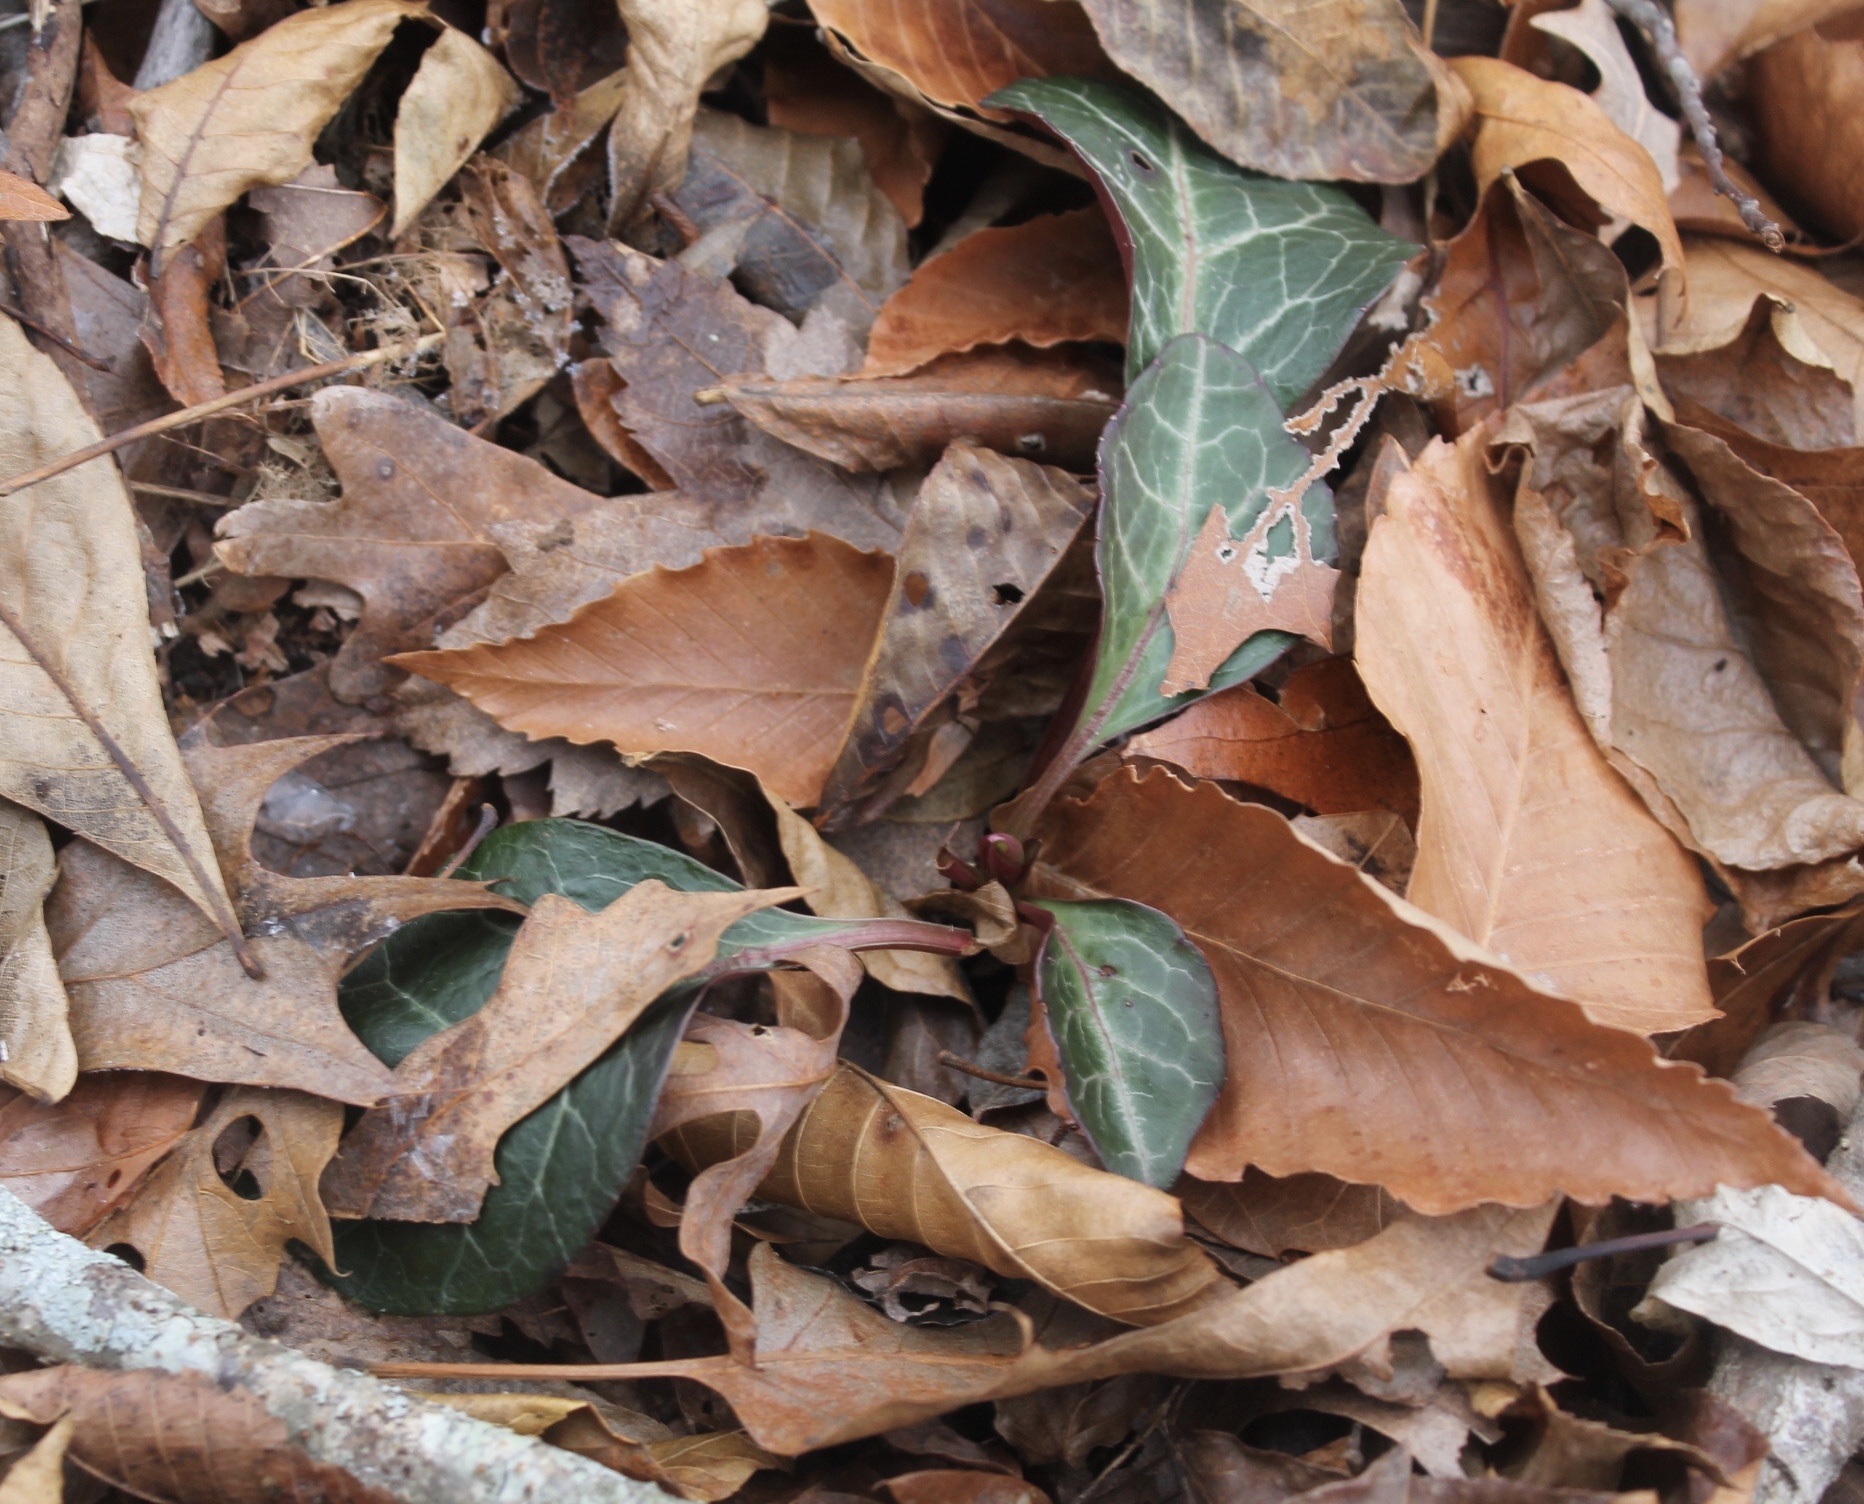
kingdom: Plantae
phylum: Tracheophyta
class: Magnoliopsida
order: Ericales
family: Ericaceae
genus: Pyrola
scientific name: Pyrola americana
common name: American wintergreen
